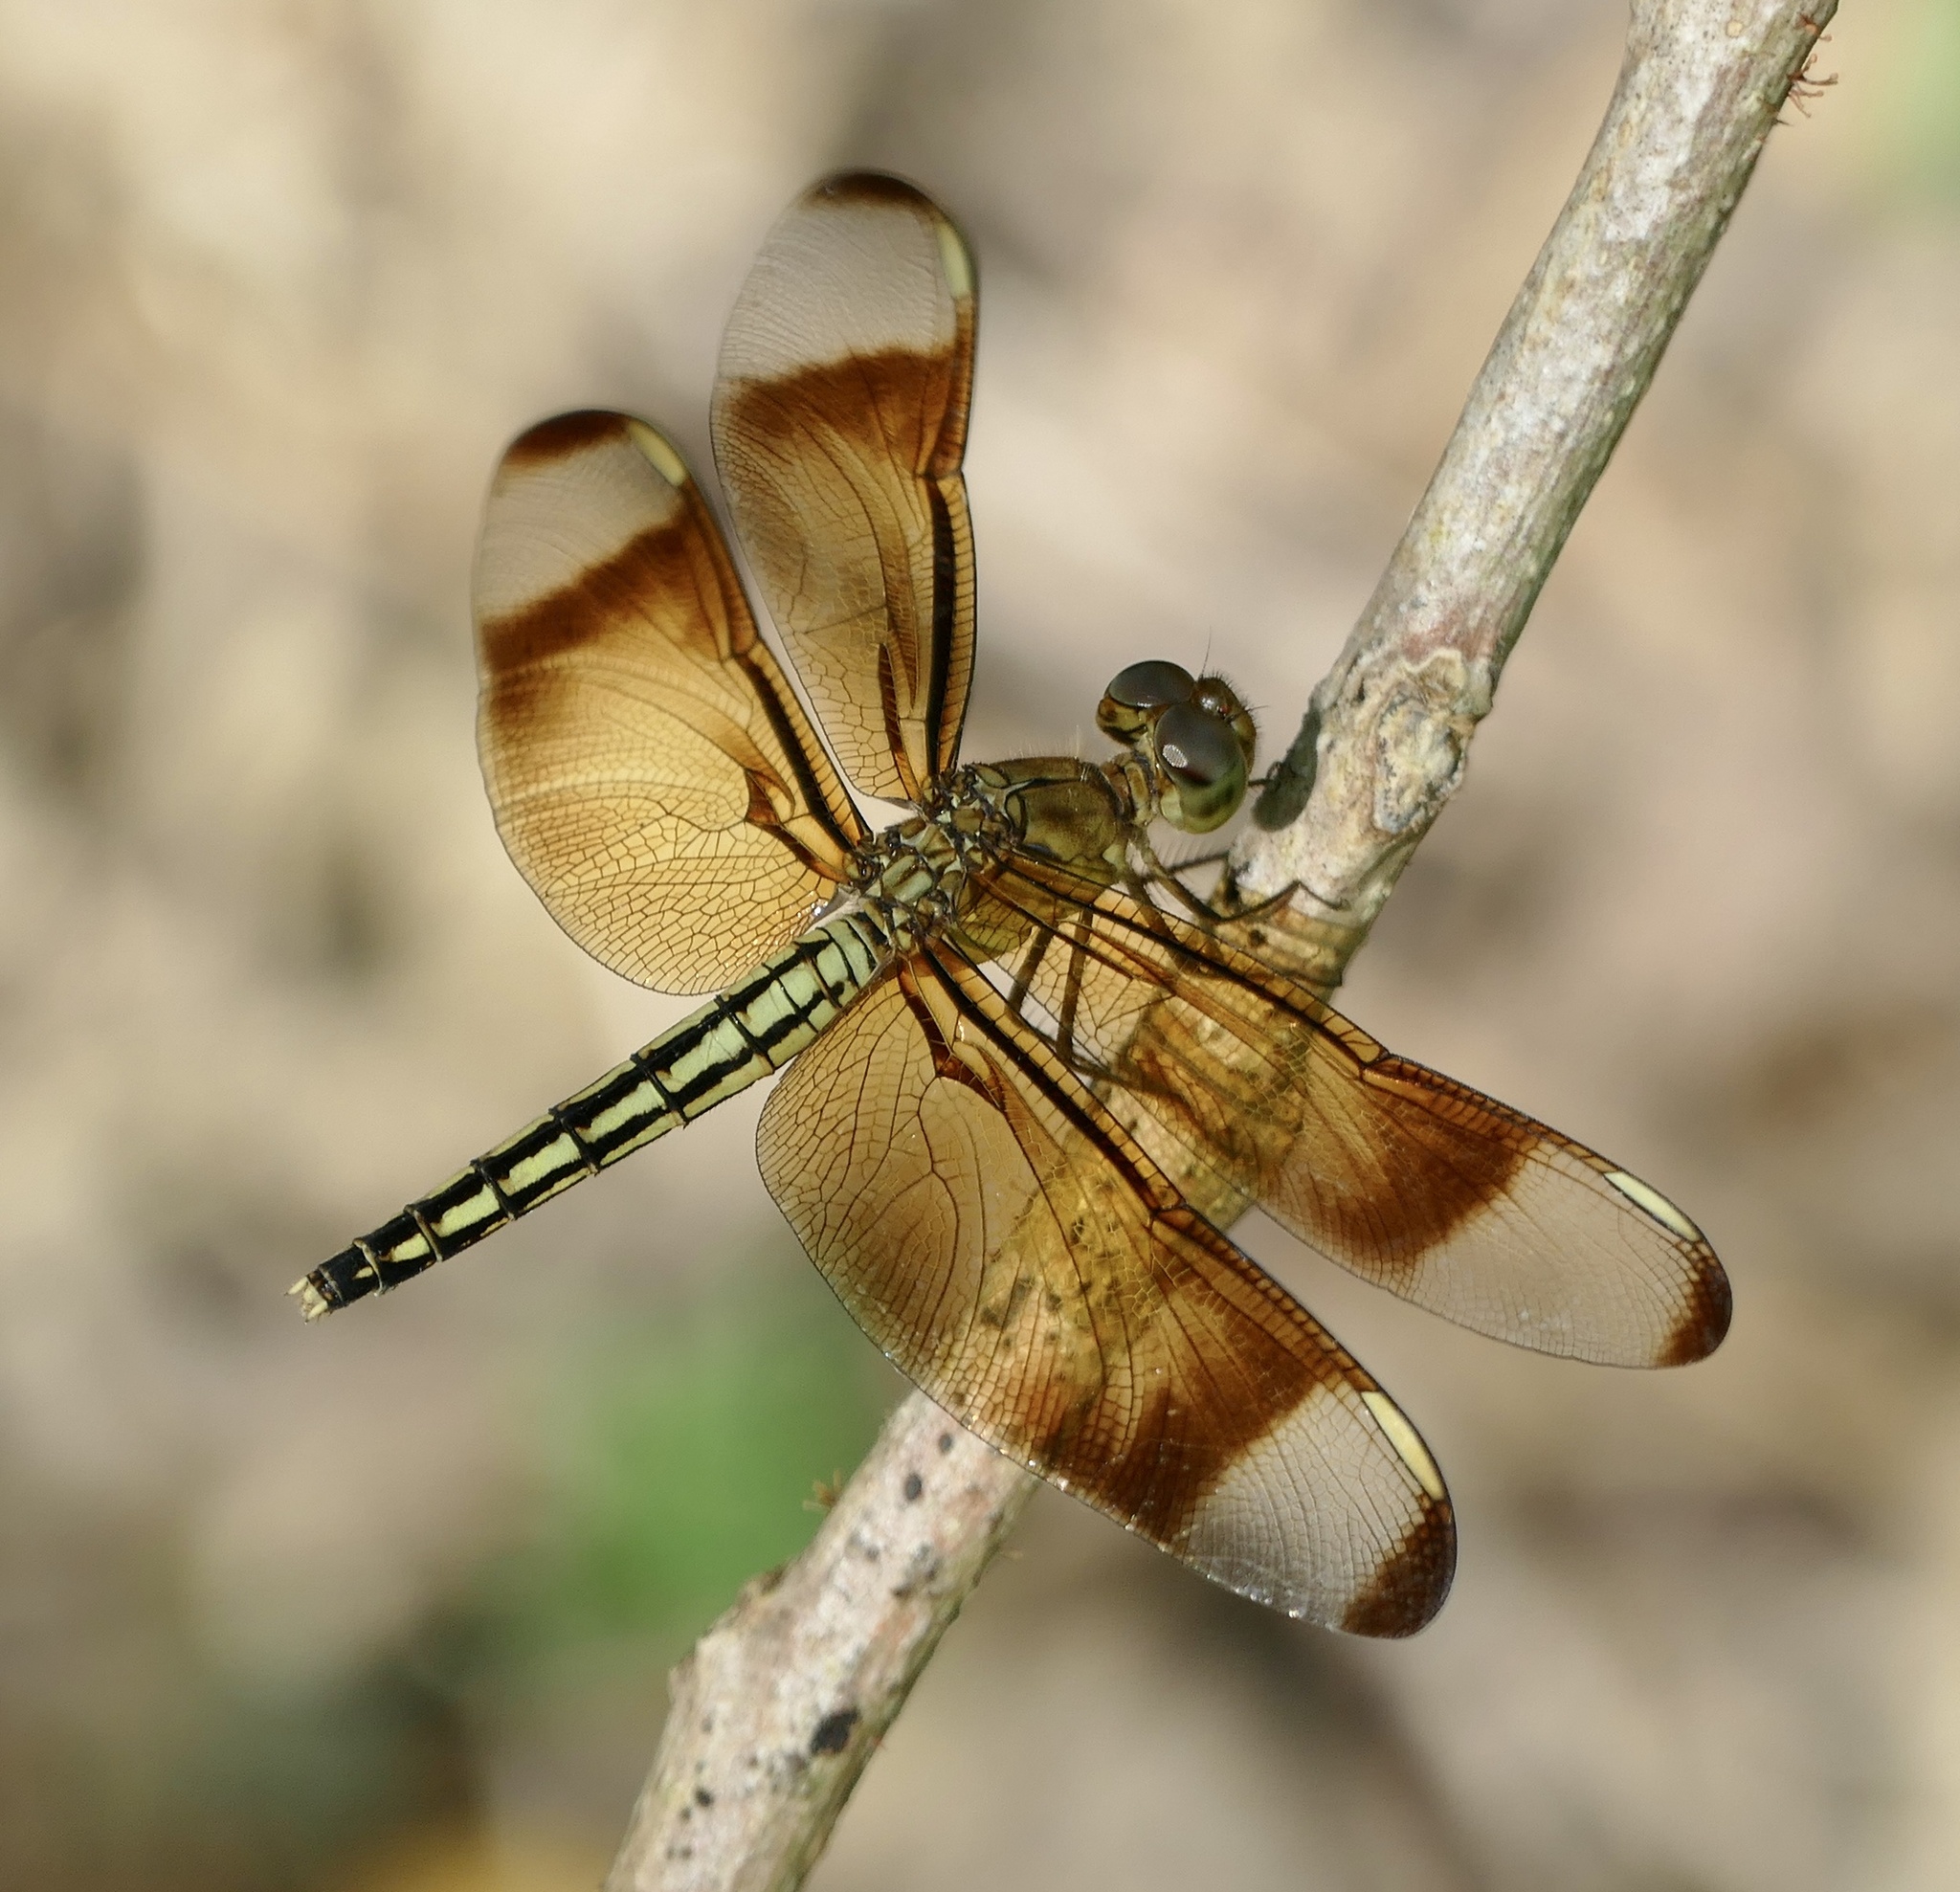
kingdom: Animalia
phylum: Arthropoda
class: Insecta
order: Odonata
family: Libellulidae
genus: Neurothemis
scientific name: Neurothemis manadensis
